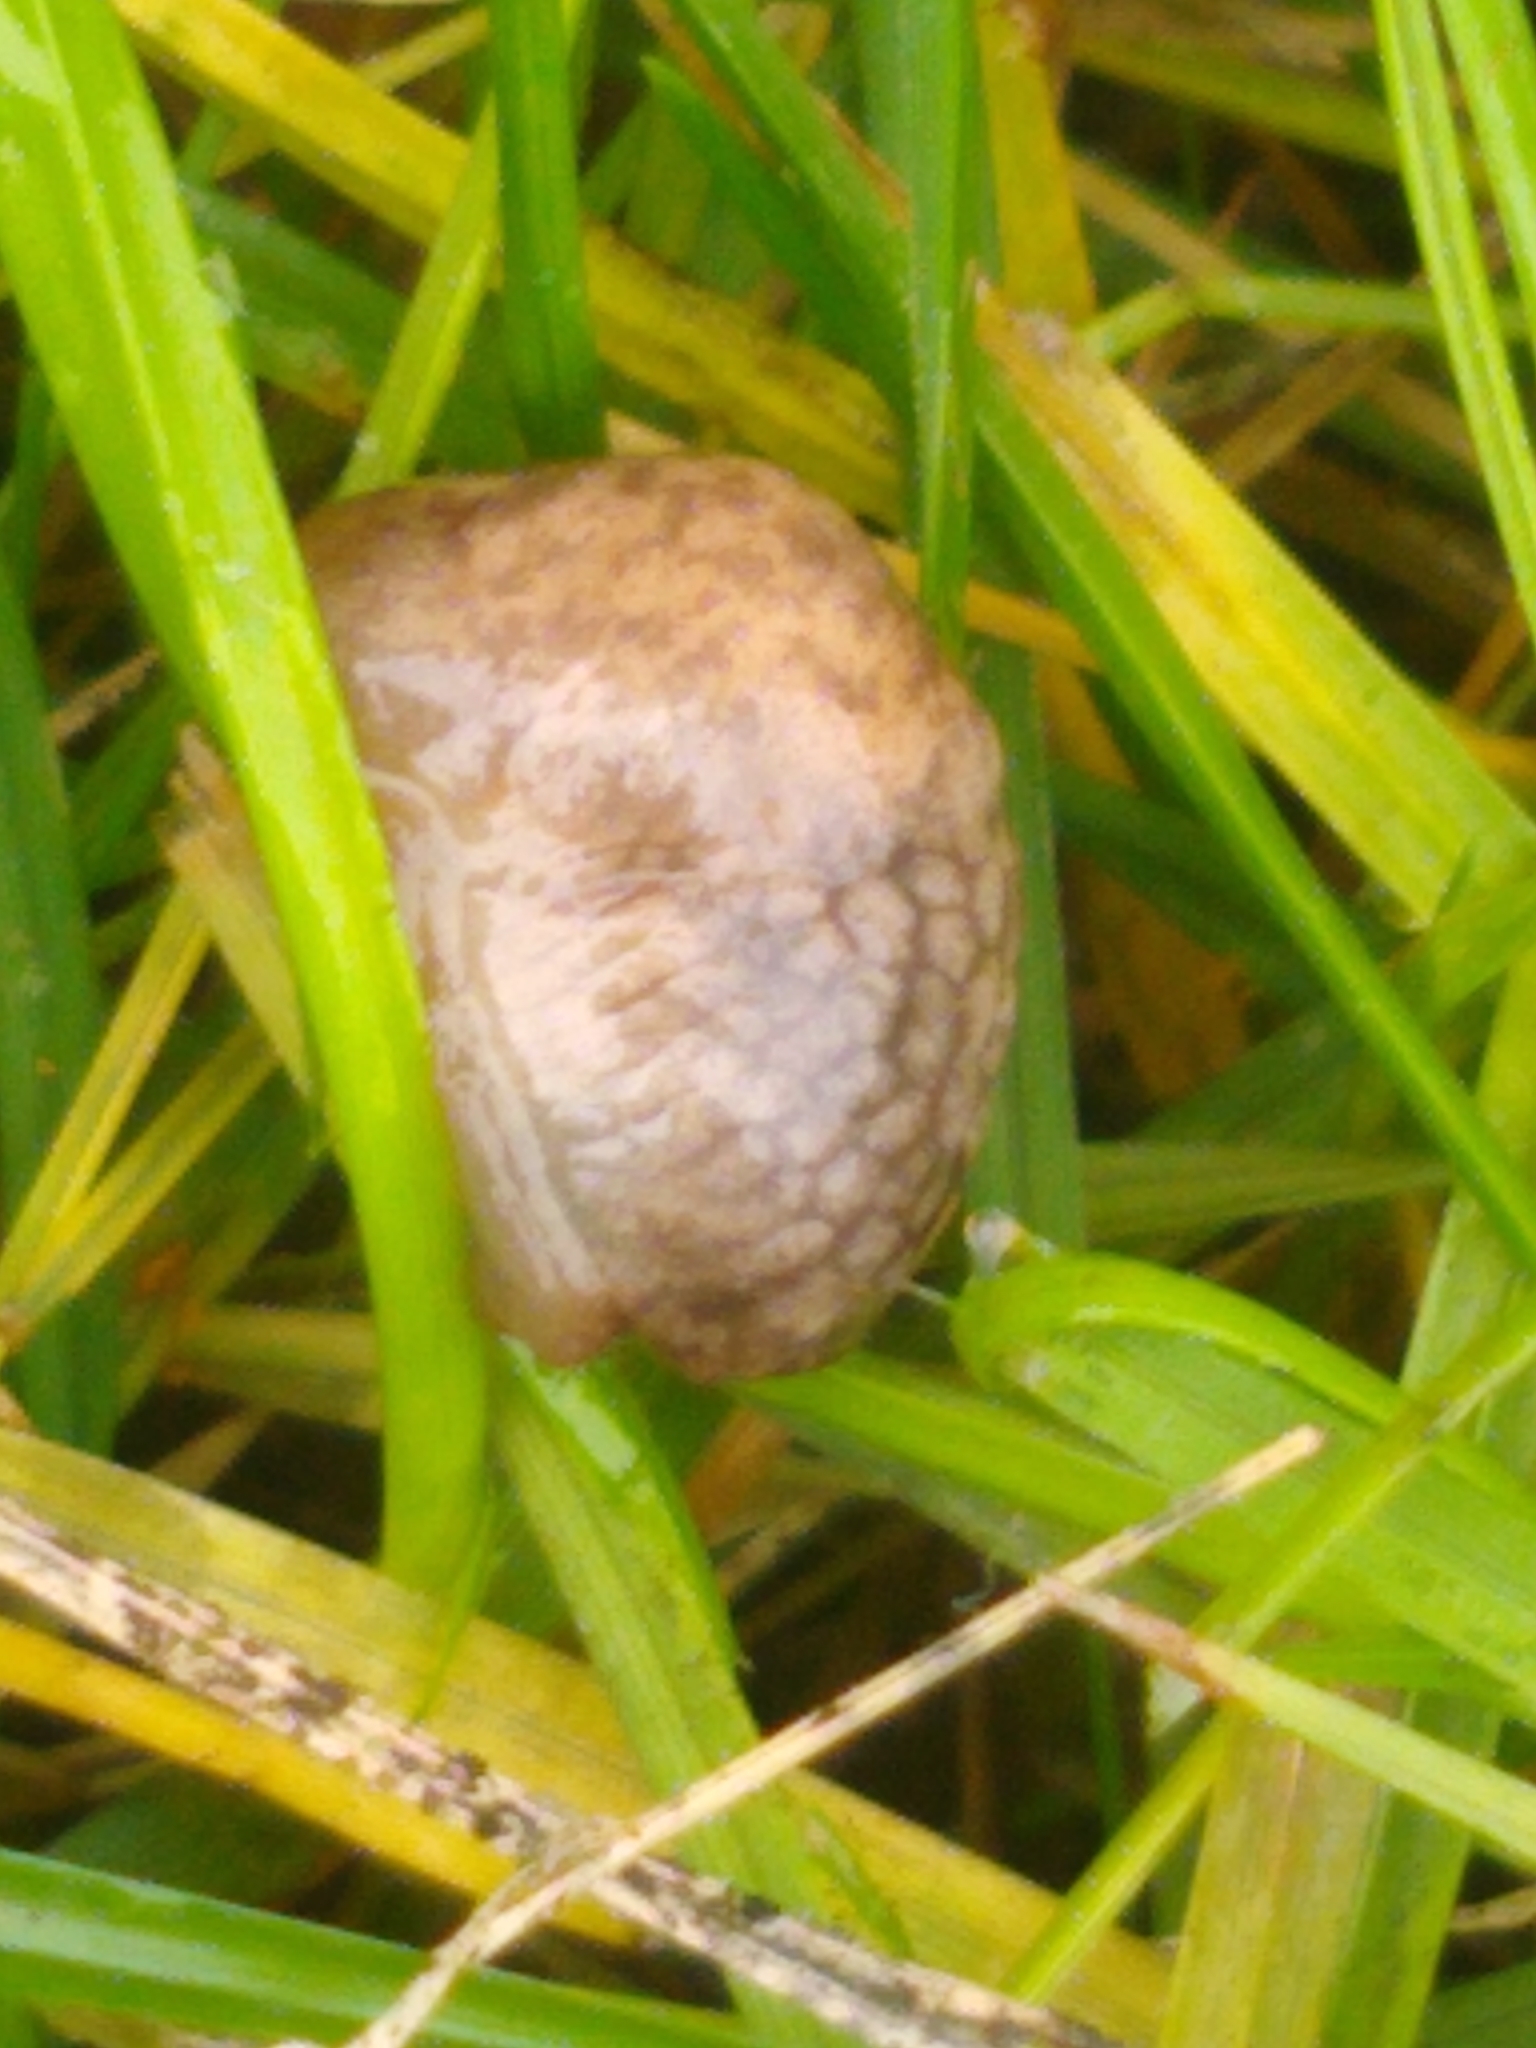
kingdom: Animalia
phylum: Mollusca
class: Gastropoda
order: Stylommatophora
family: Agriolimacidae
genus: Deroceras
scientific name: Deroceras reticulatum
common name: Gray field slug
